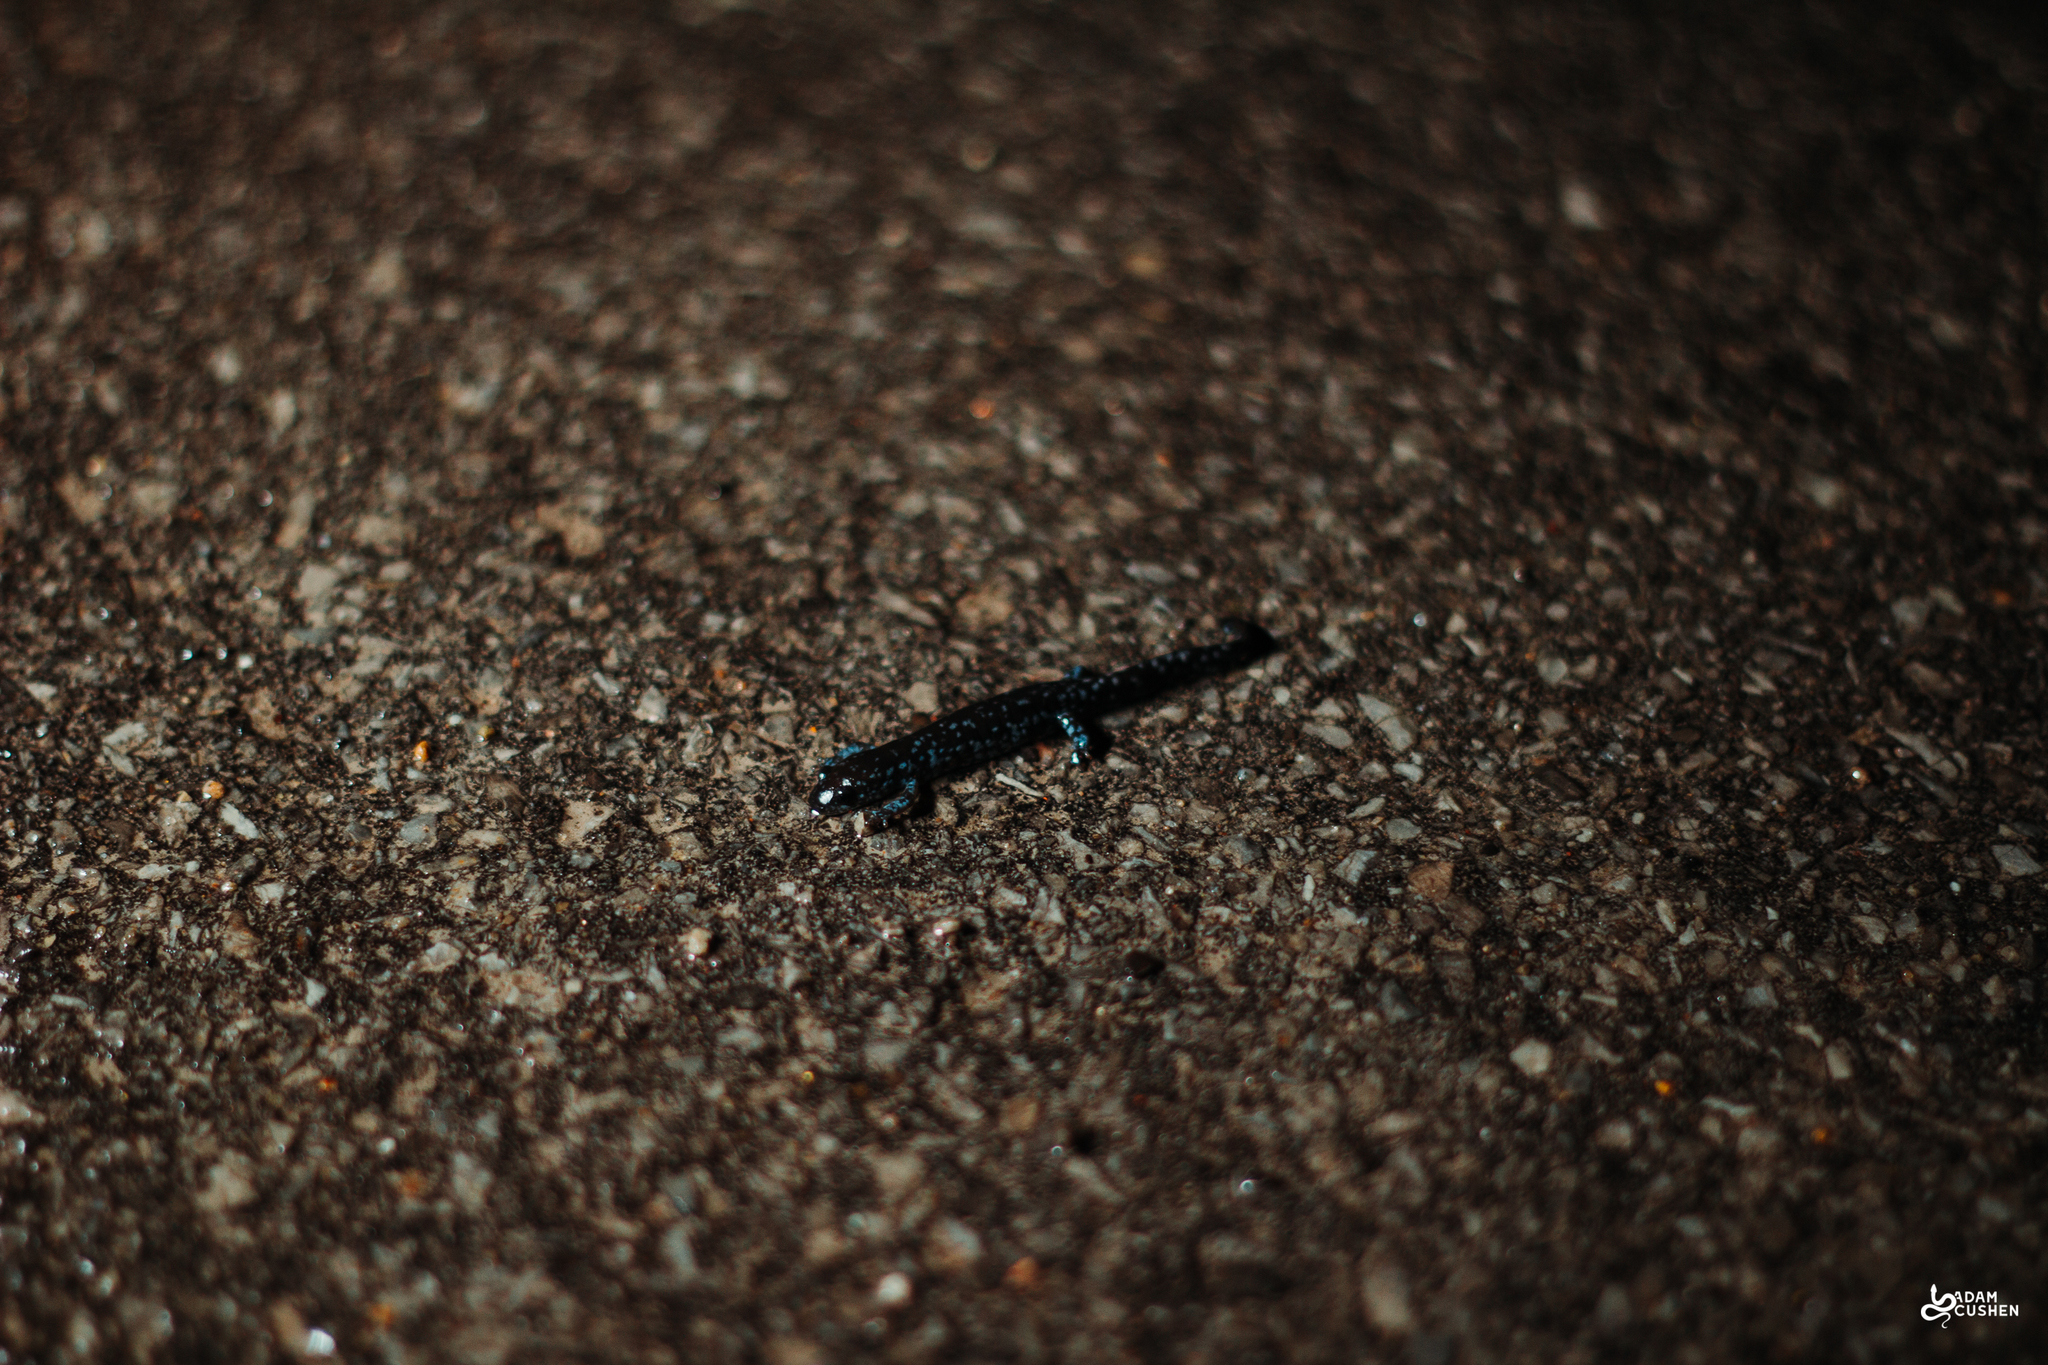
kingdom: Animalia
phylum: Chordata
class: Amphibia
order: Caudata
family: Ambystomatidae
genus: Ambystoma
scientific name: Ambystoma laterale
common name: Blue-spotted salamander
